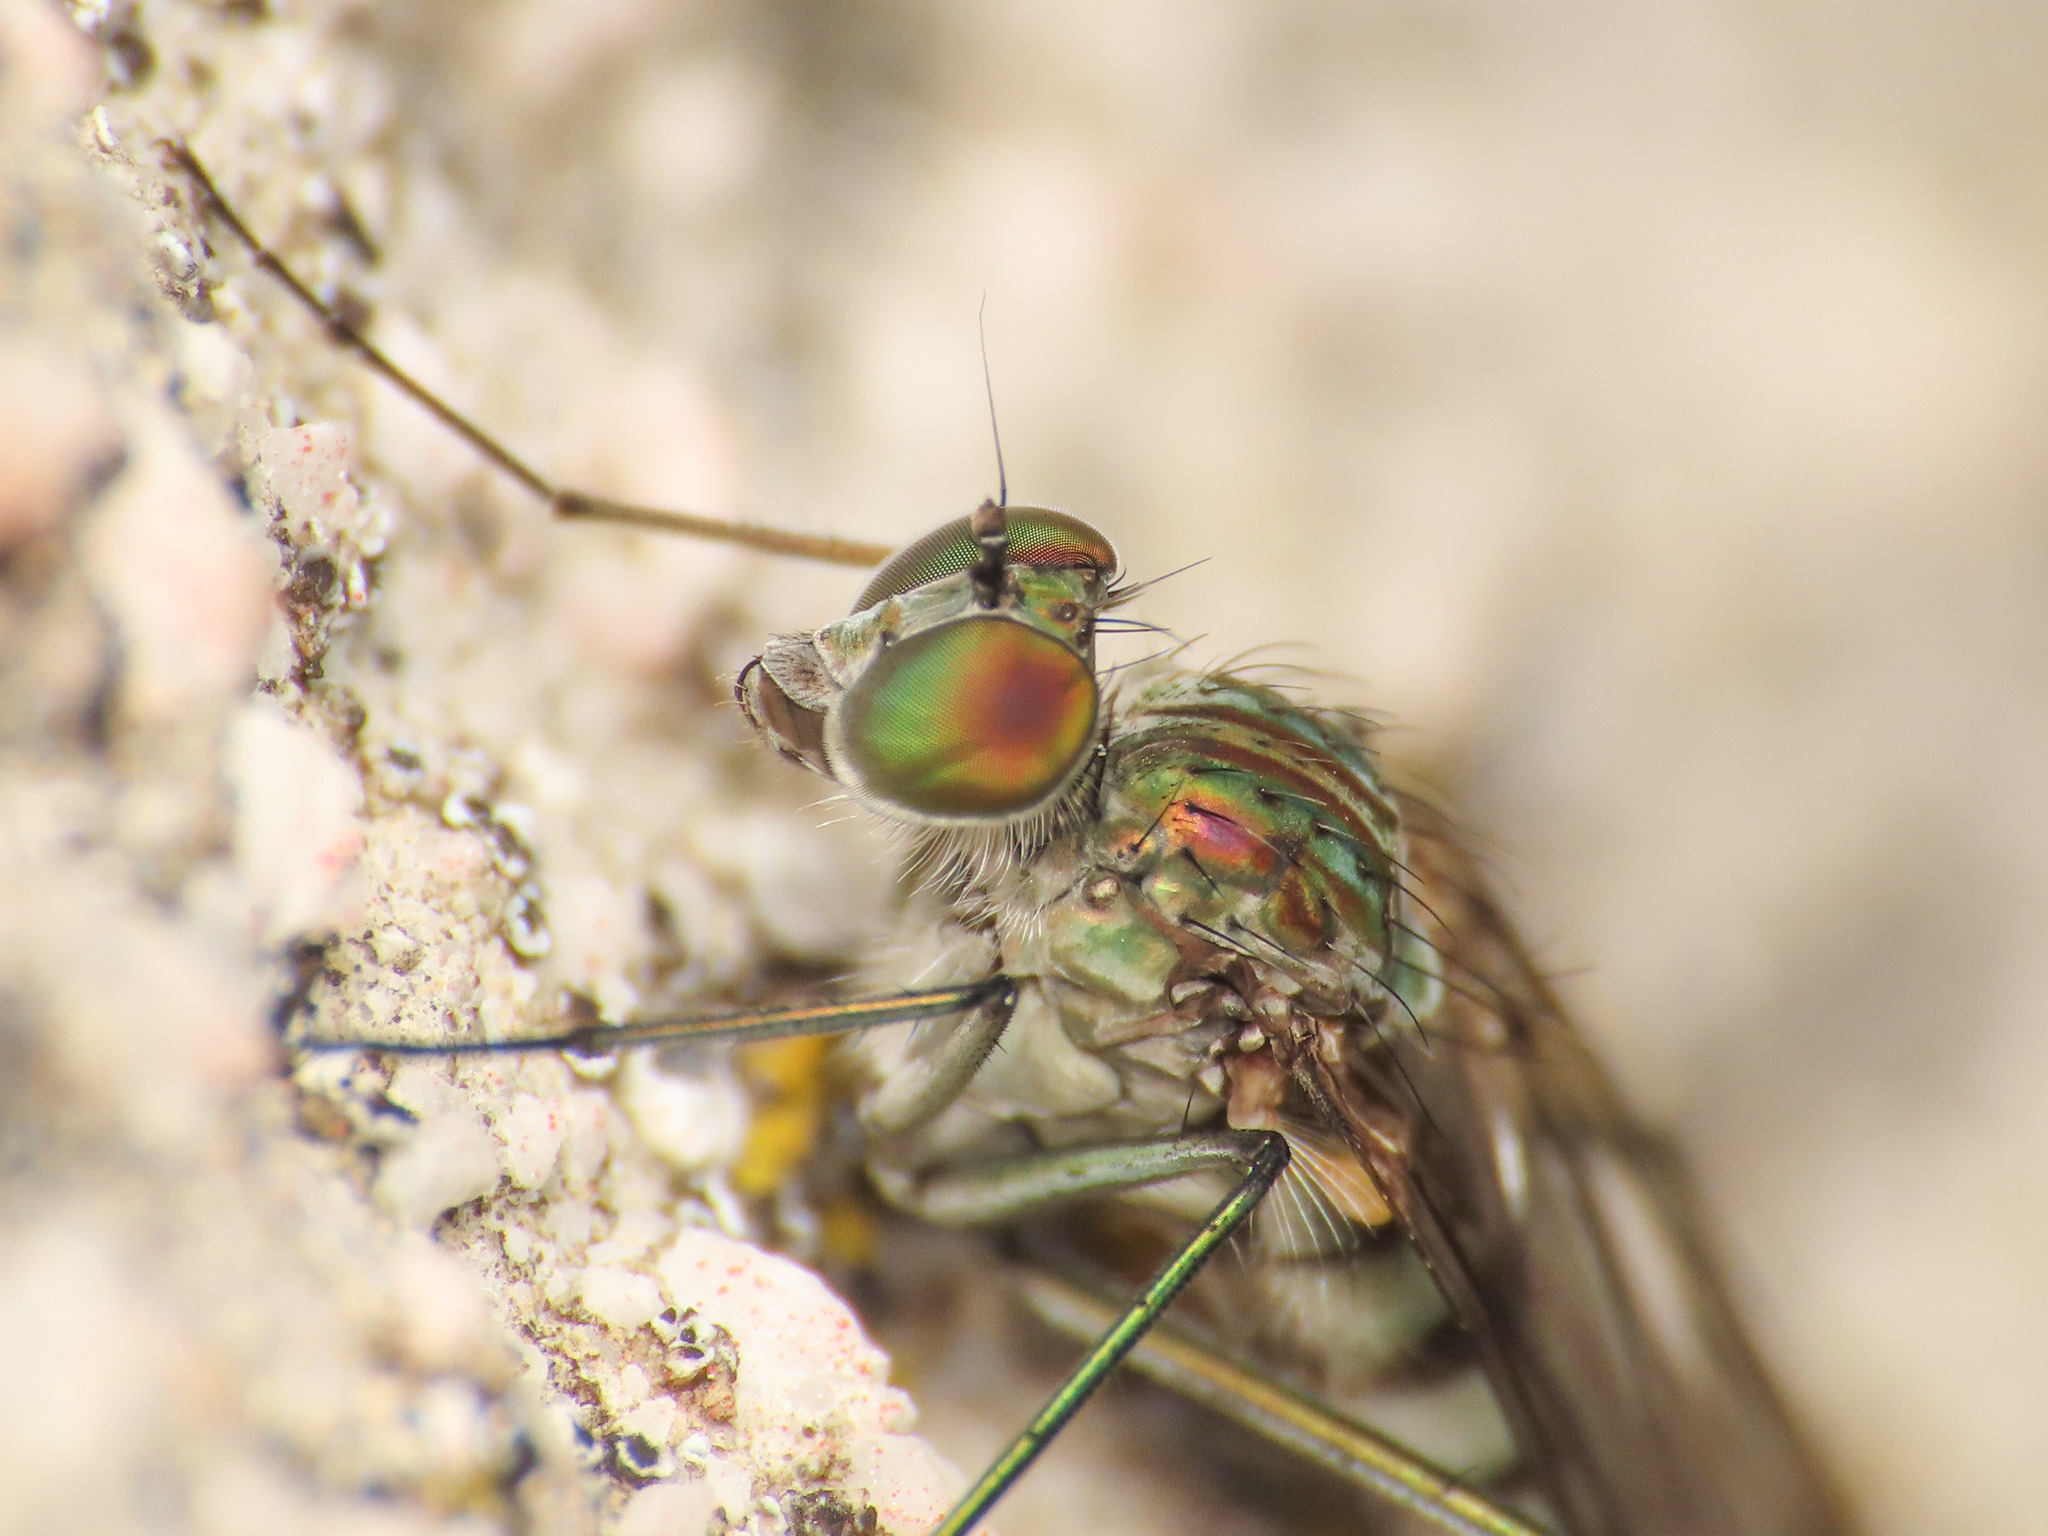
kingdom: Animalia
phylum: Arthropoda
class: Insecta
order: Diptera
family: Dolichopodidae
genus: Liancalus
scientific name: Liancalus virens
